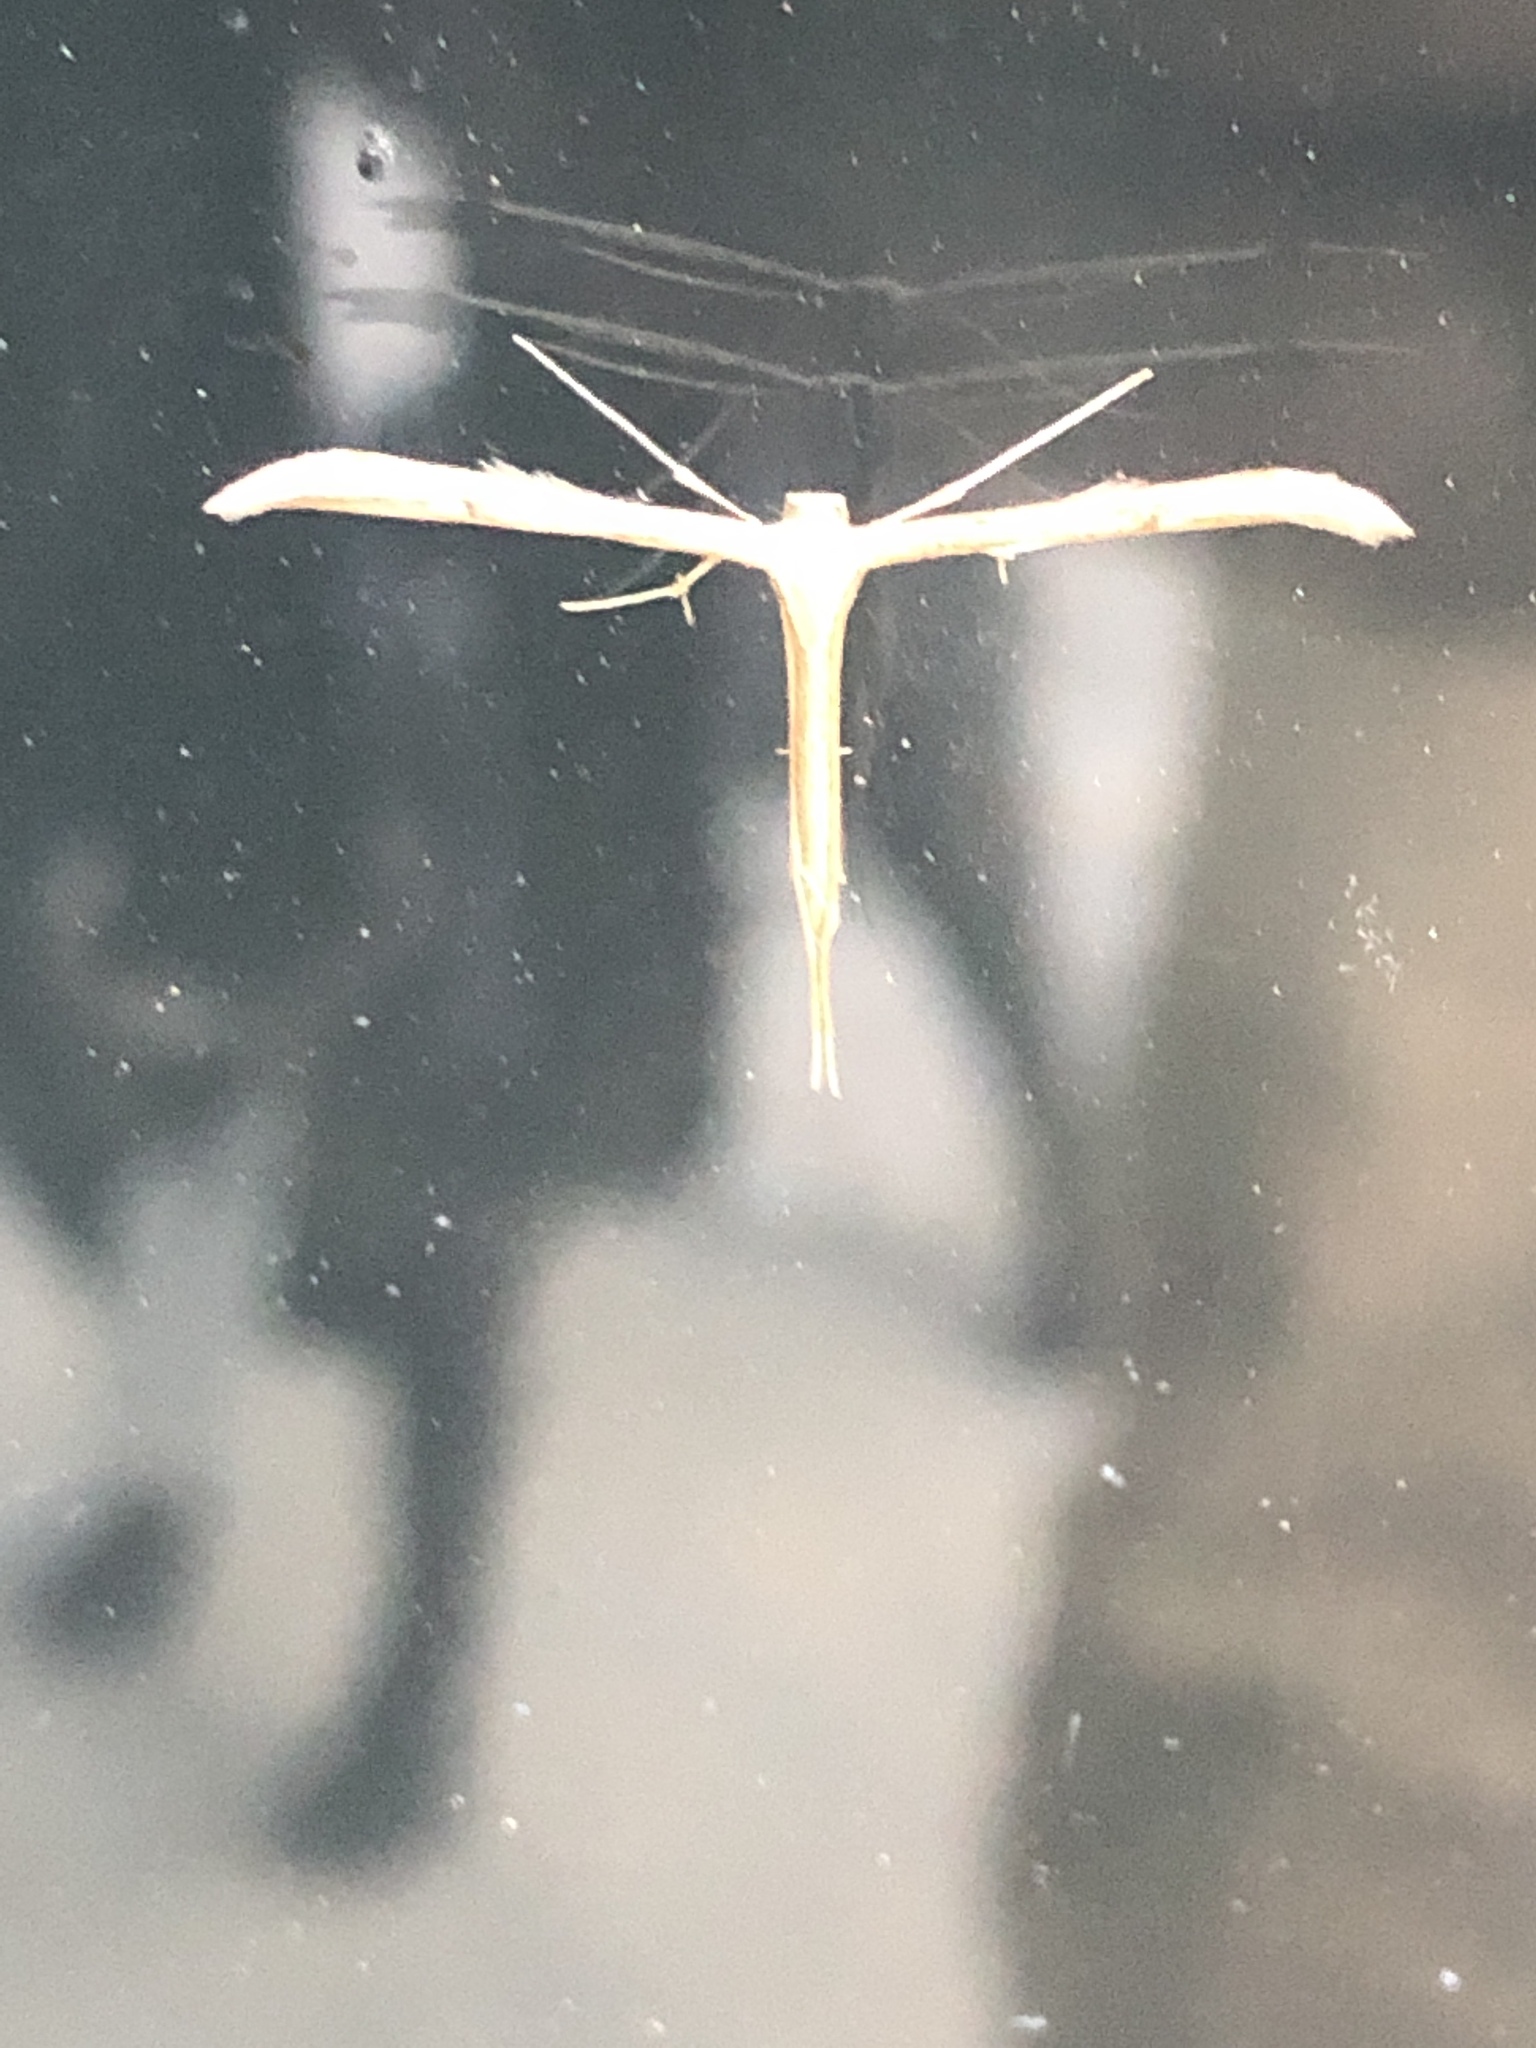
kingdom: Animalia
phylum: Arthropoda
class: Insecta
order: Lepidoptera
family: Pterophoridae
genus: Emmelina
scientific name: Emmelina monodactyla
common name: Common plume
